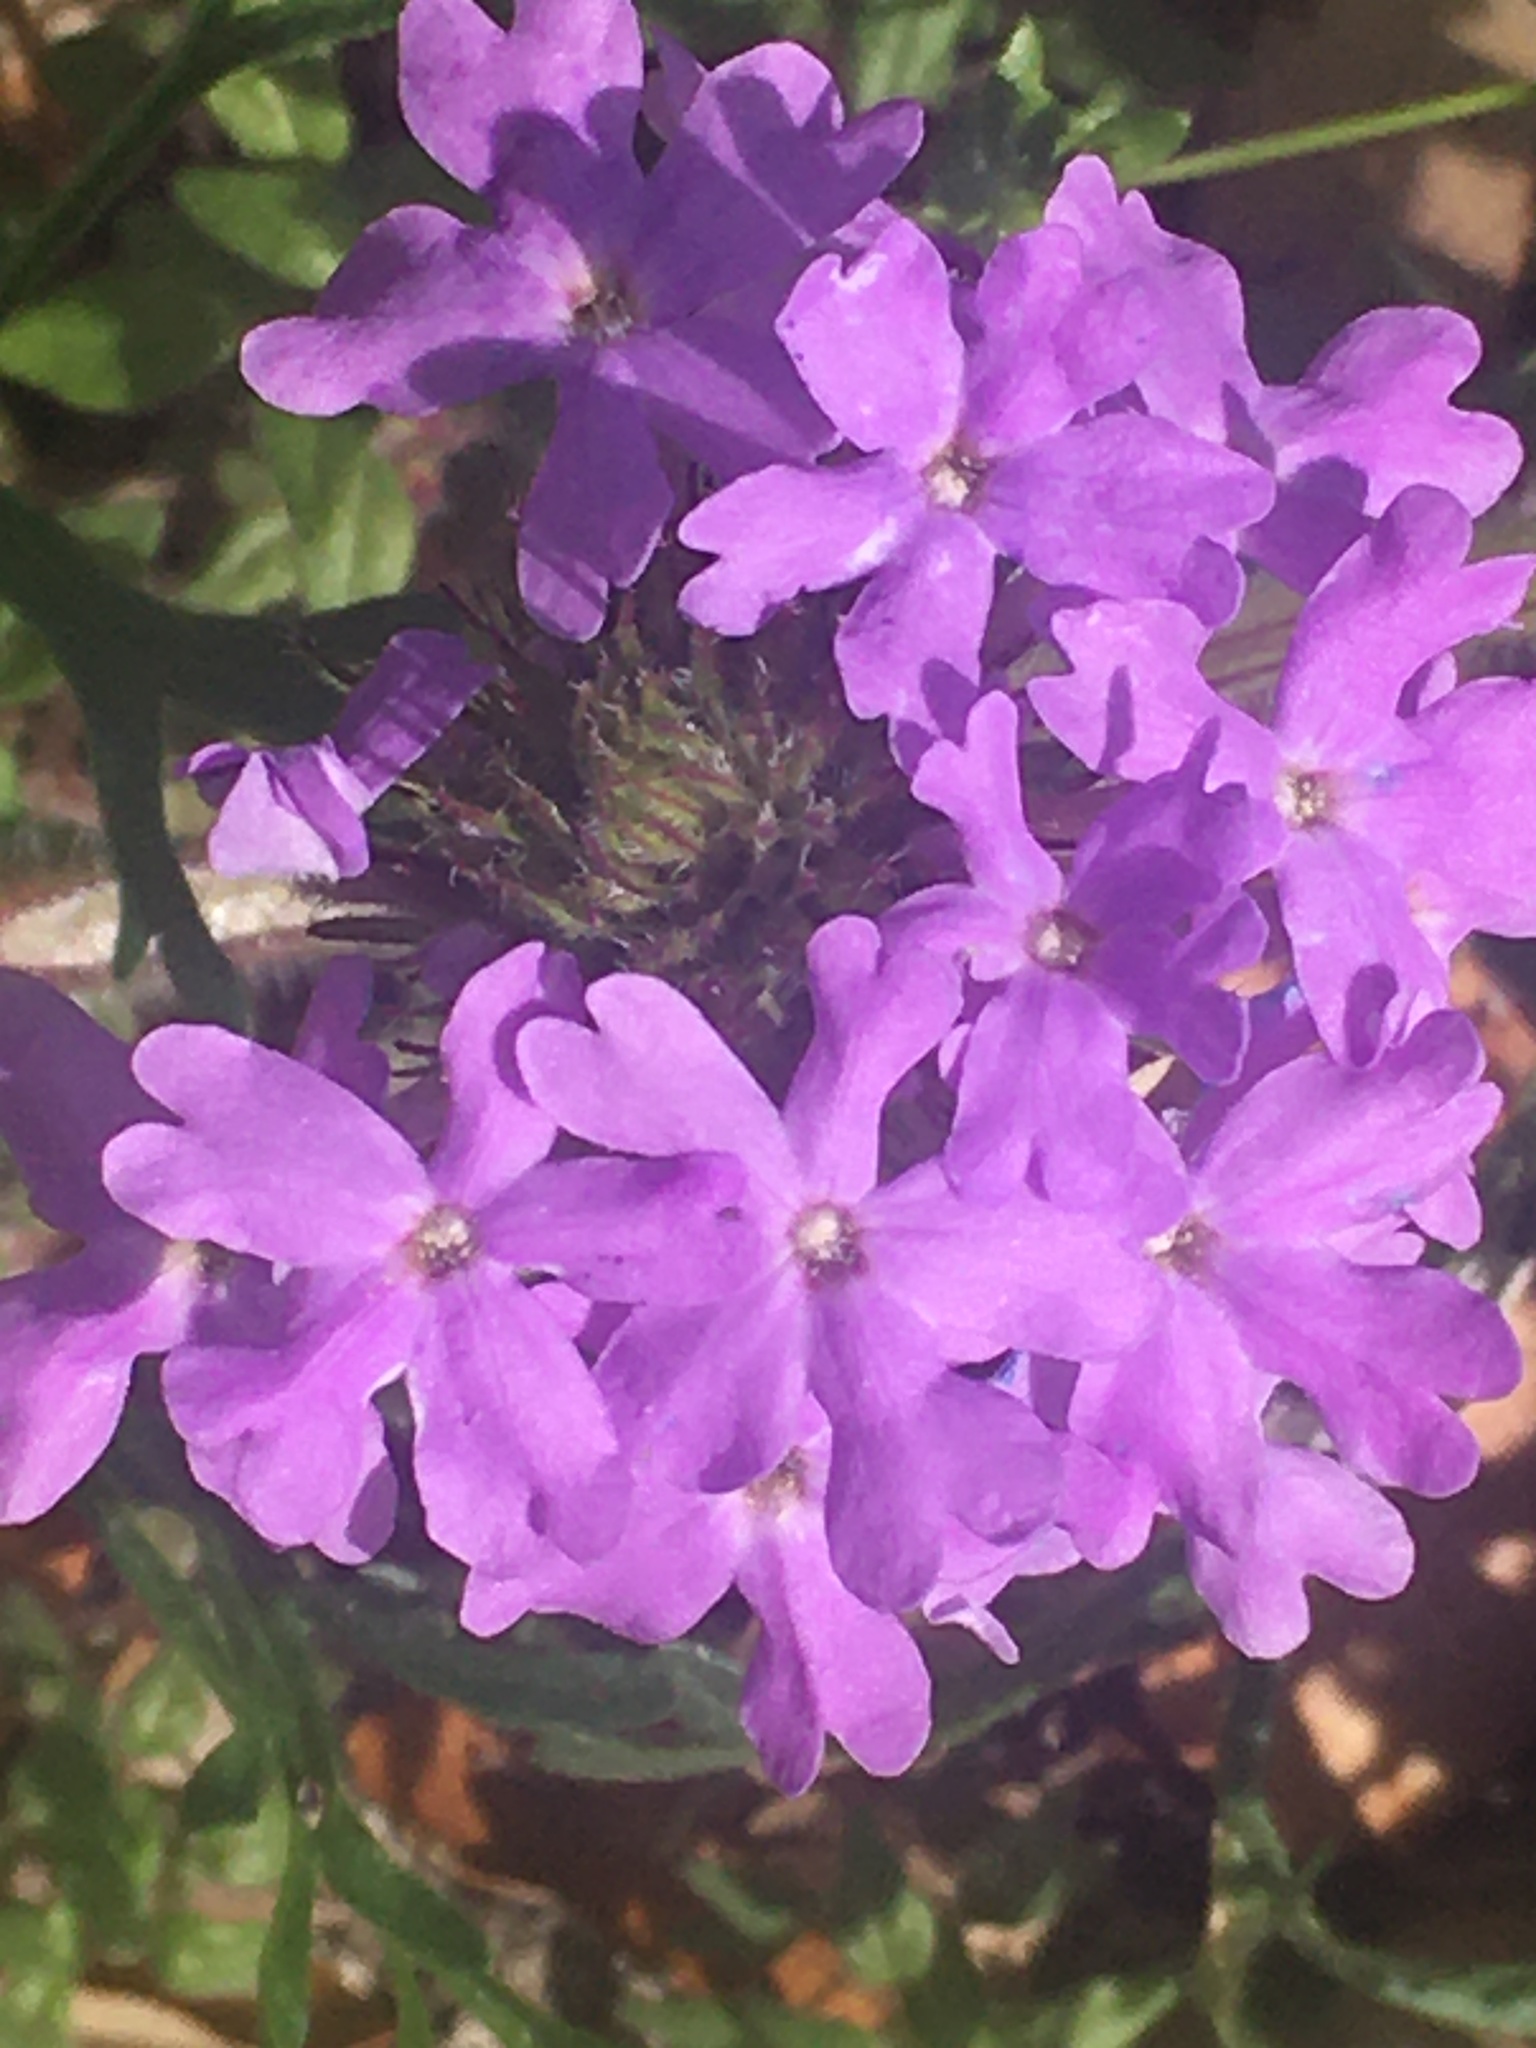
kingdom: Plantae
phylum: Tracheophyta
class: Magnoliopsida
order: Lamiales
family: Verbenaceae
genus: Verbena
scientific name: Verbena bipinnatifida
